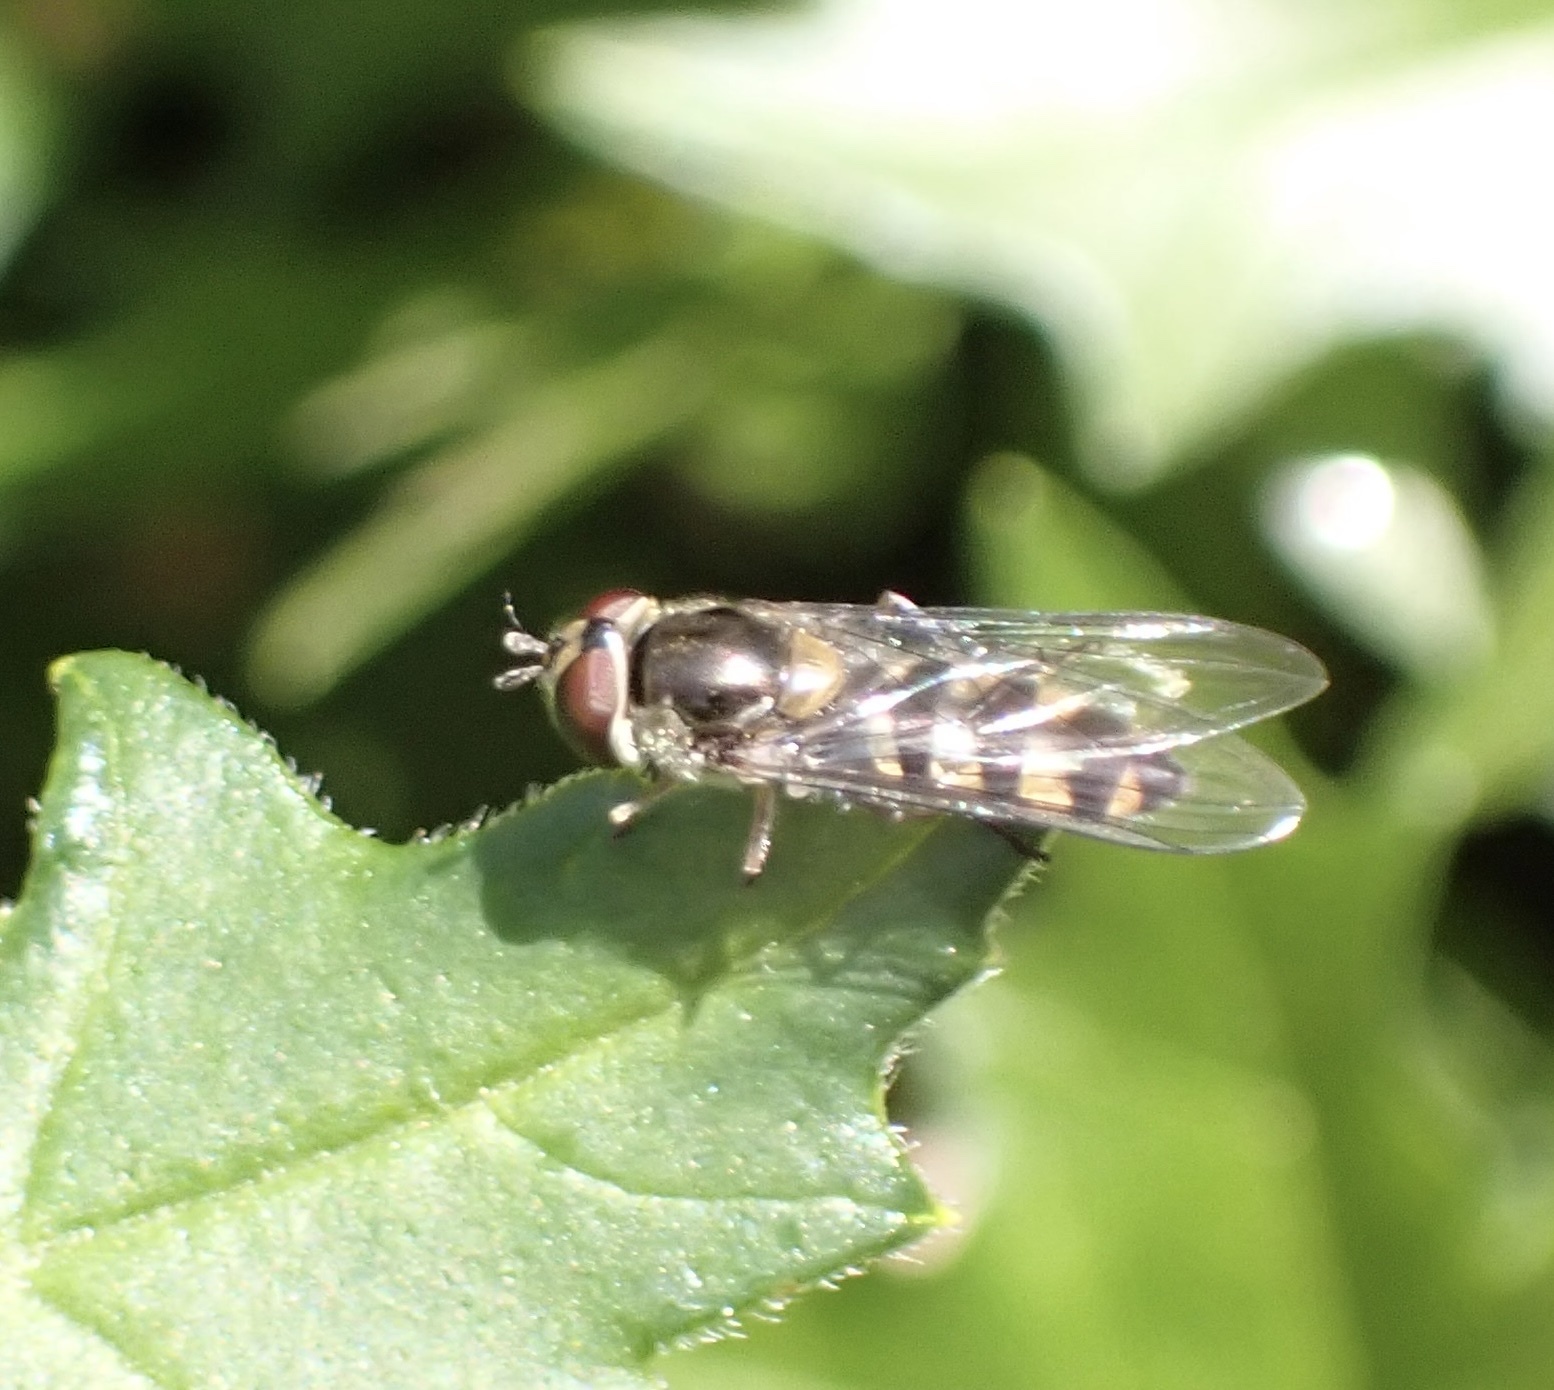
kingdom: Animalia
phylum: Arthropoda
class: Insecta
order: Diptera
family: Syrphidae
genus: Meliscaeva
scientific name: Meliscaeva auricollis
